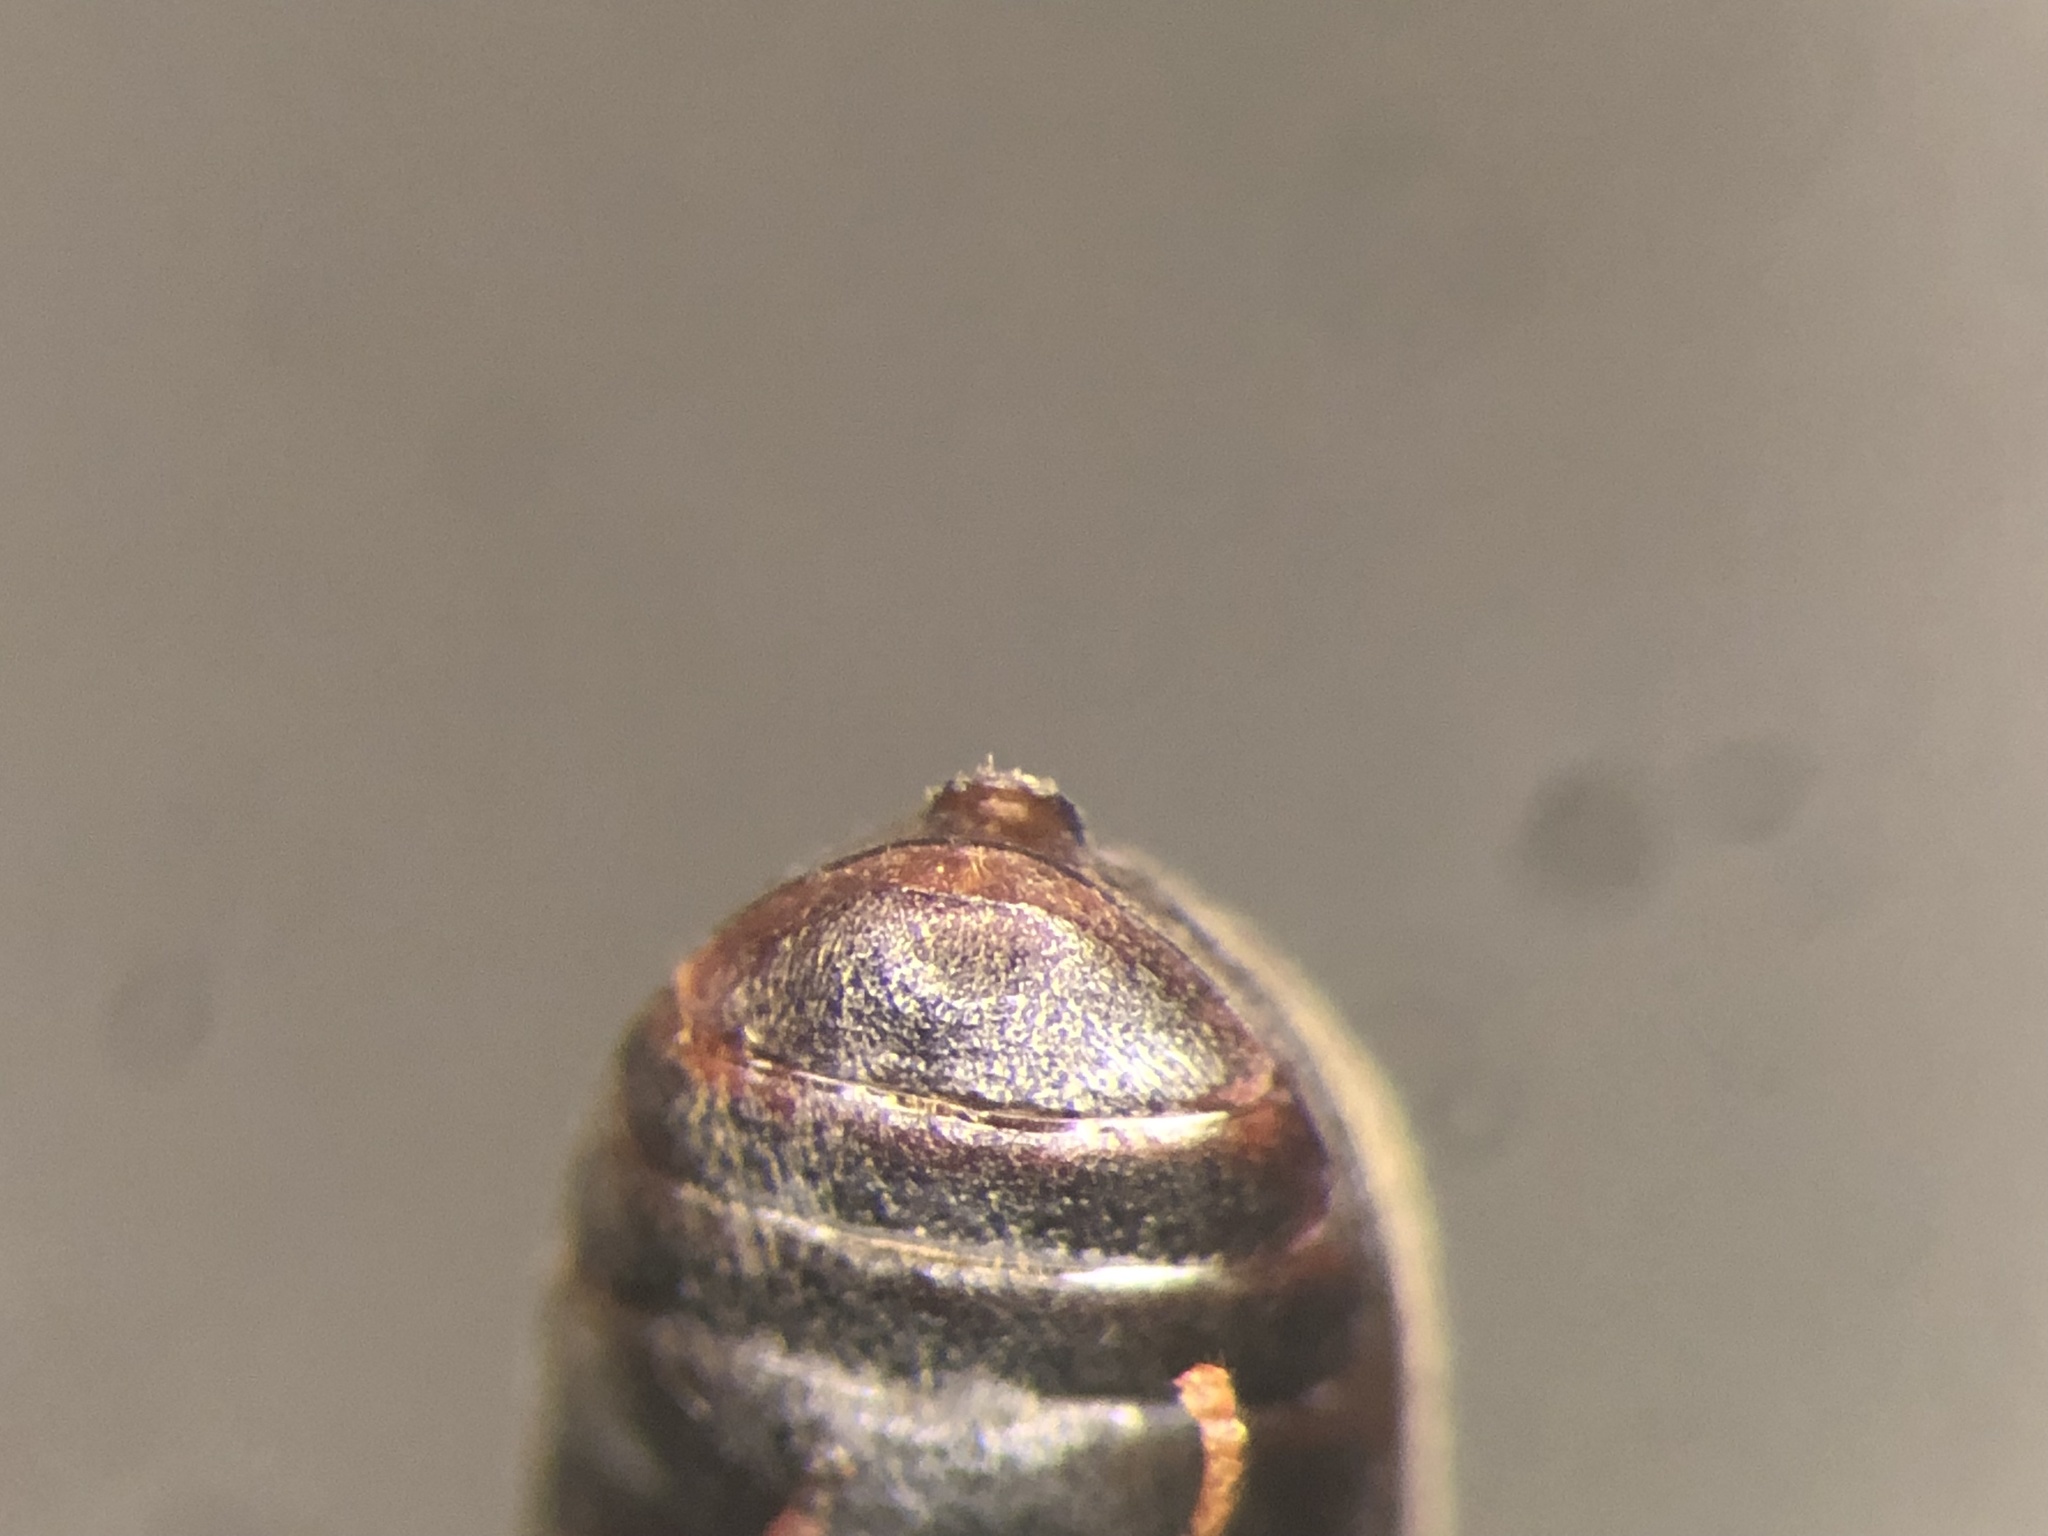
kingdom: Animalia
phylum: Arthropoda
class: Insecta
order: Coleoptera
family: Anobiidae
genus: Ptilinus
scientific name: Ptilinus ruficornis
